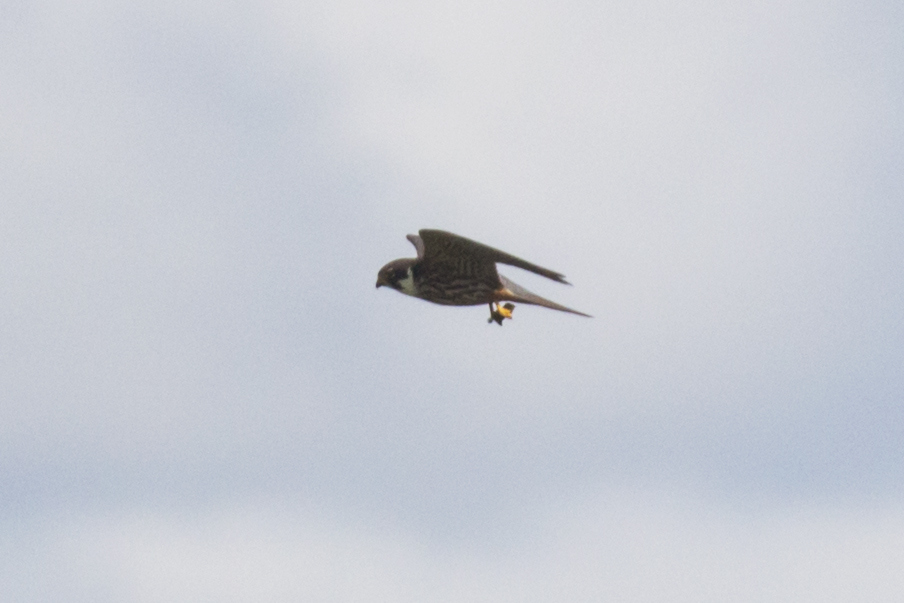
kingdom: Animalia
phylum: Chordata
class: Aves
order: Falconiformes
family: Falconidae
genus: Falco
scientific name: Falco subbuteo
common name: Eurasian hobby
